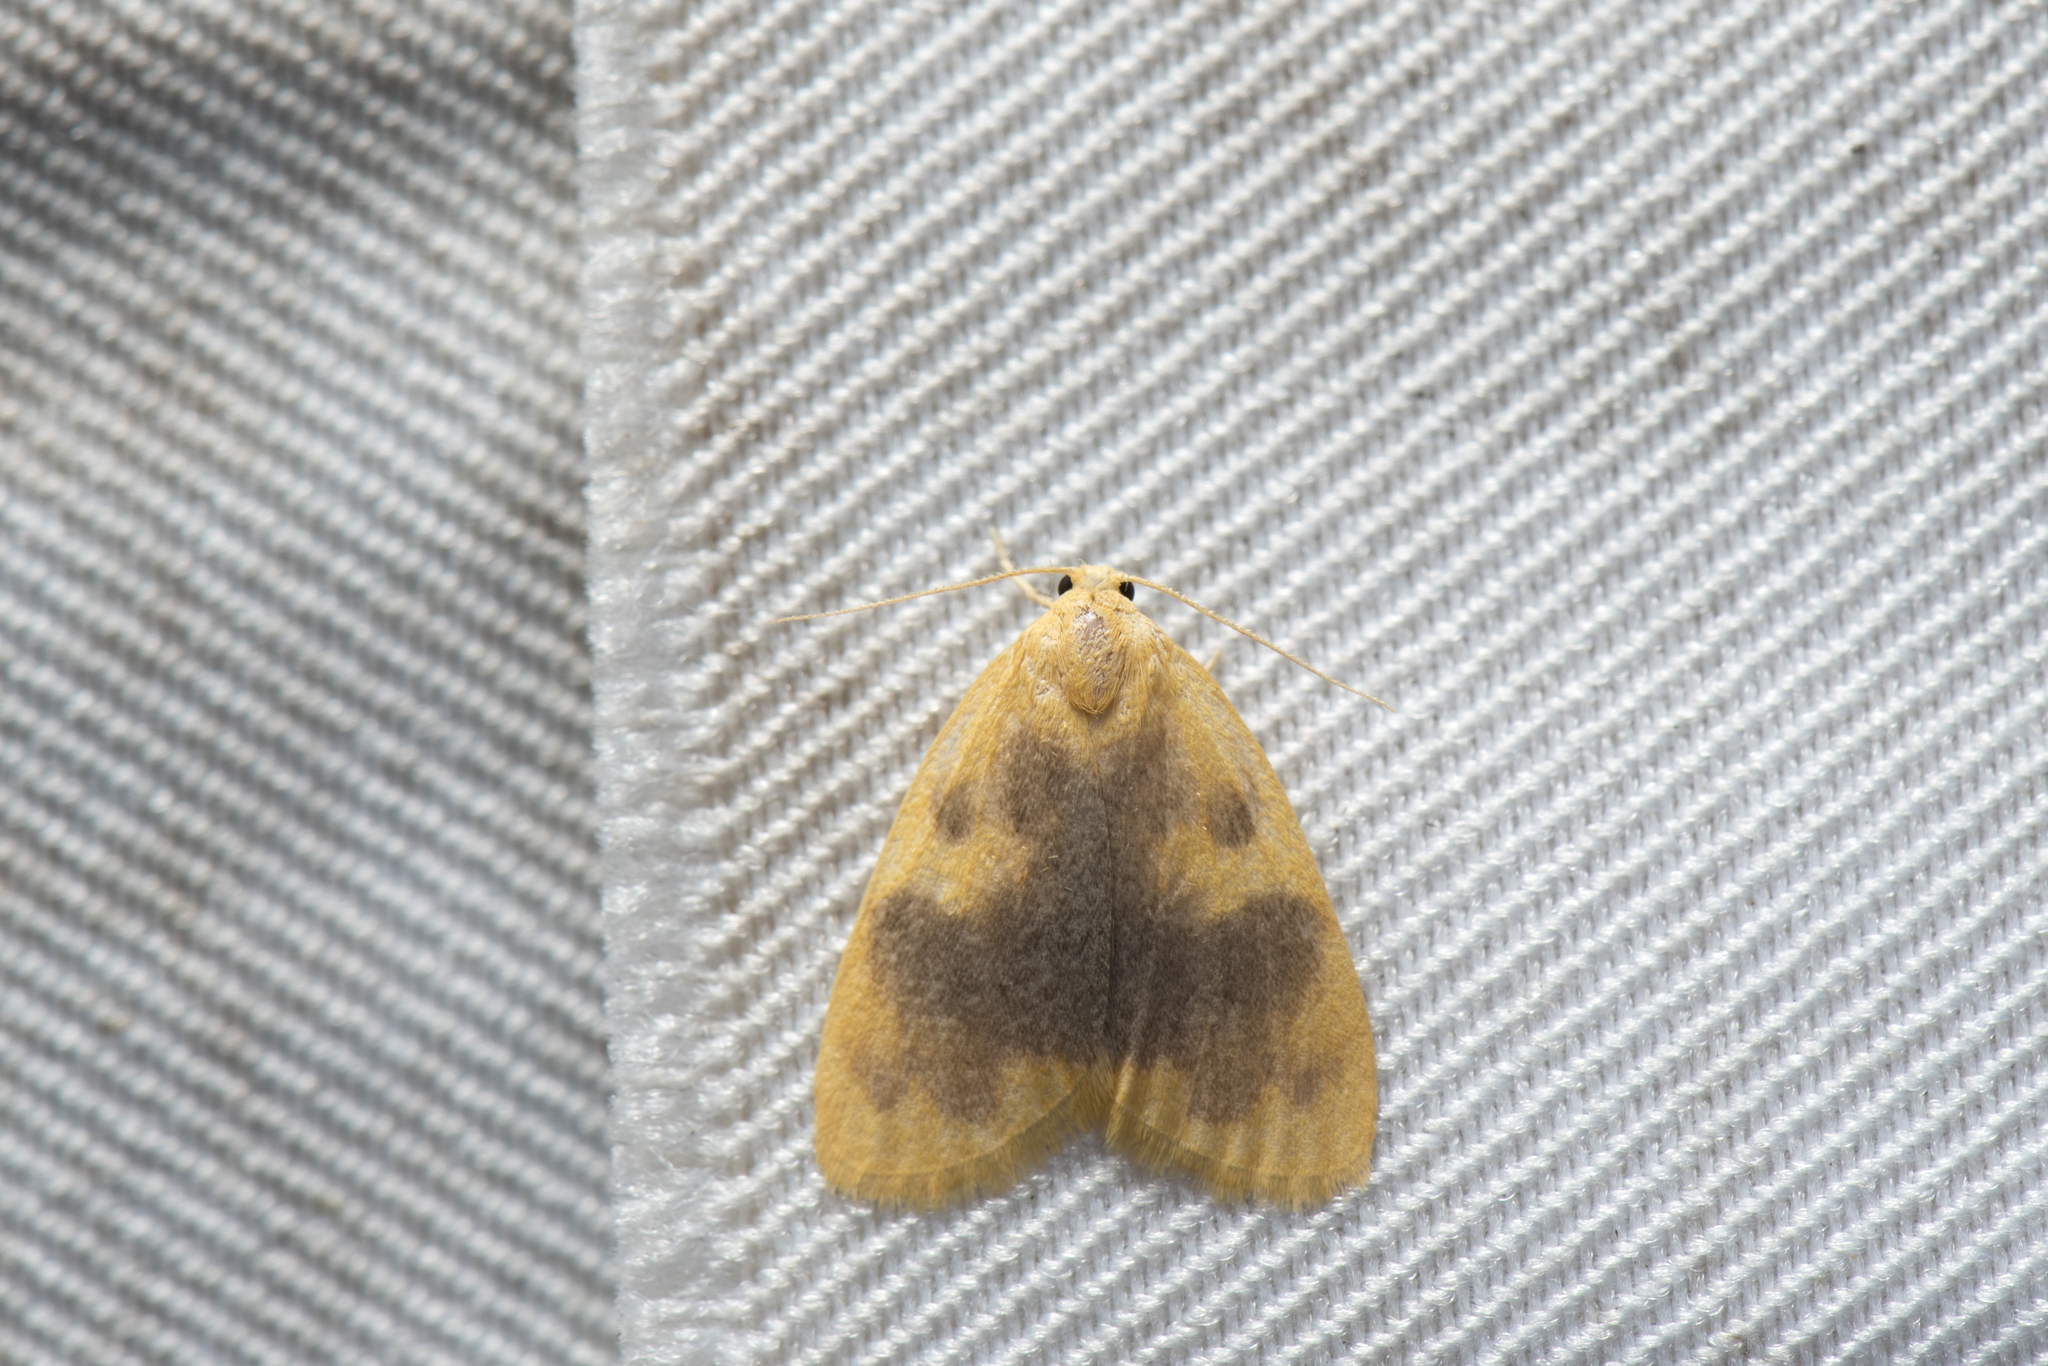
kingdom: Animalia
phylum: Arthropoda
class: Insecta
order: Lepidoptera
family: Erebidae
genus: Nudina
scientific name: Nudina artaxidia
